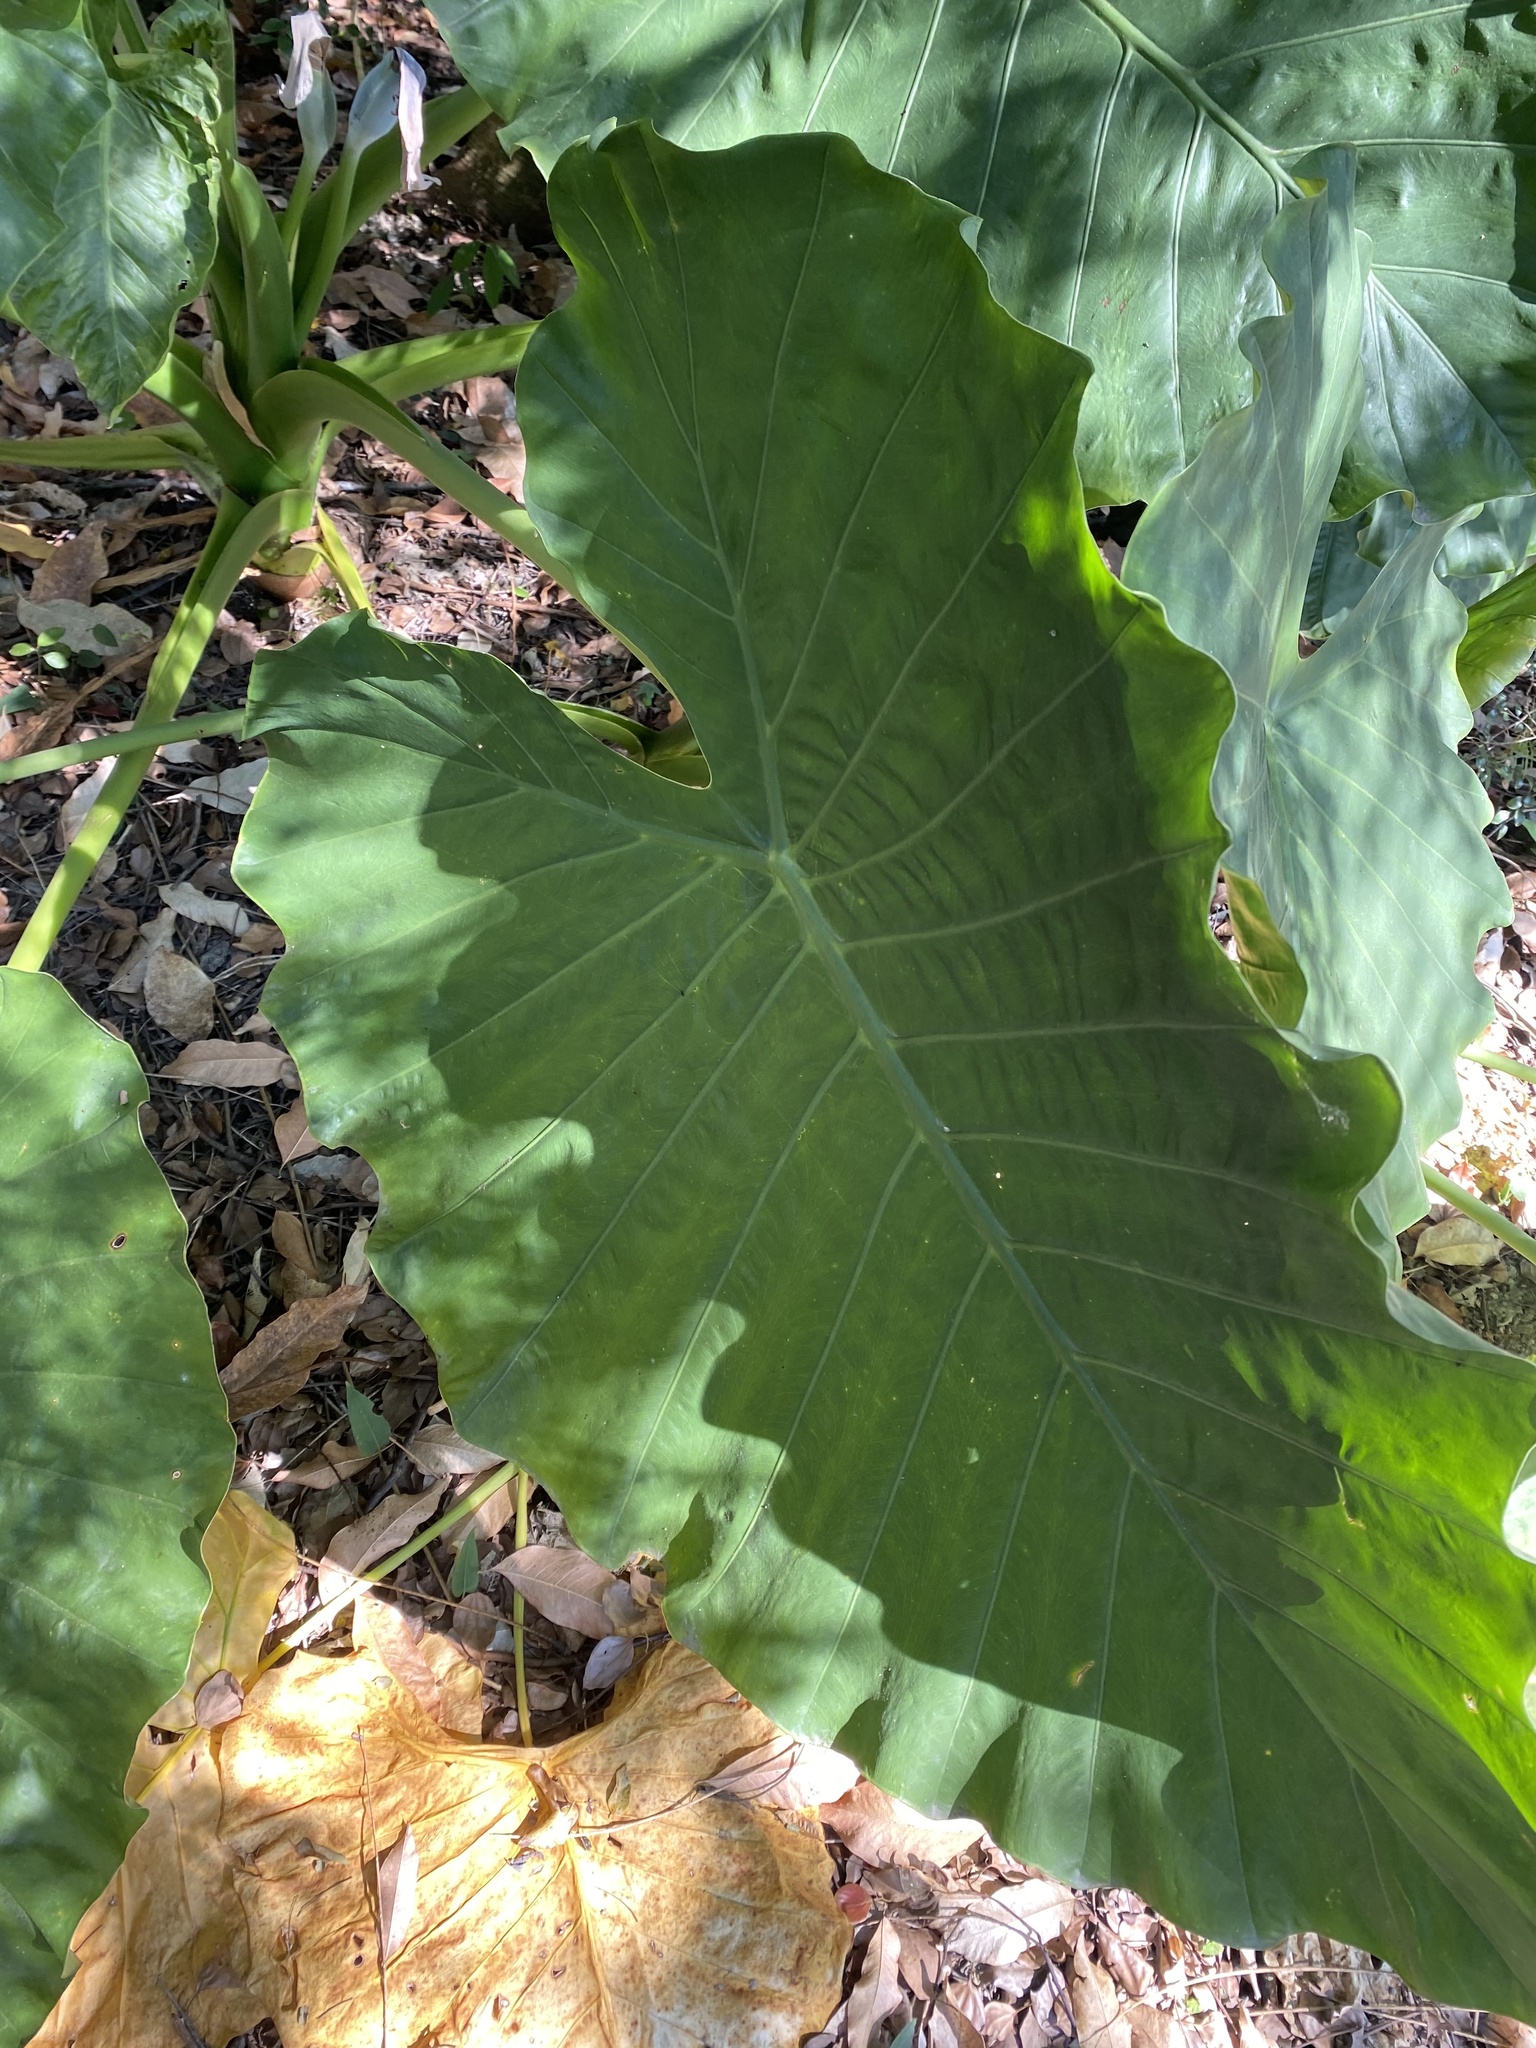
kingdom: Plantae
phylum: Tracheophyta
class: Liliopsida
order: Alismatales
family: Araceae
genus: Alocasia
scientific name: Alocasia odora
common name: Asian taro
